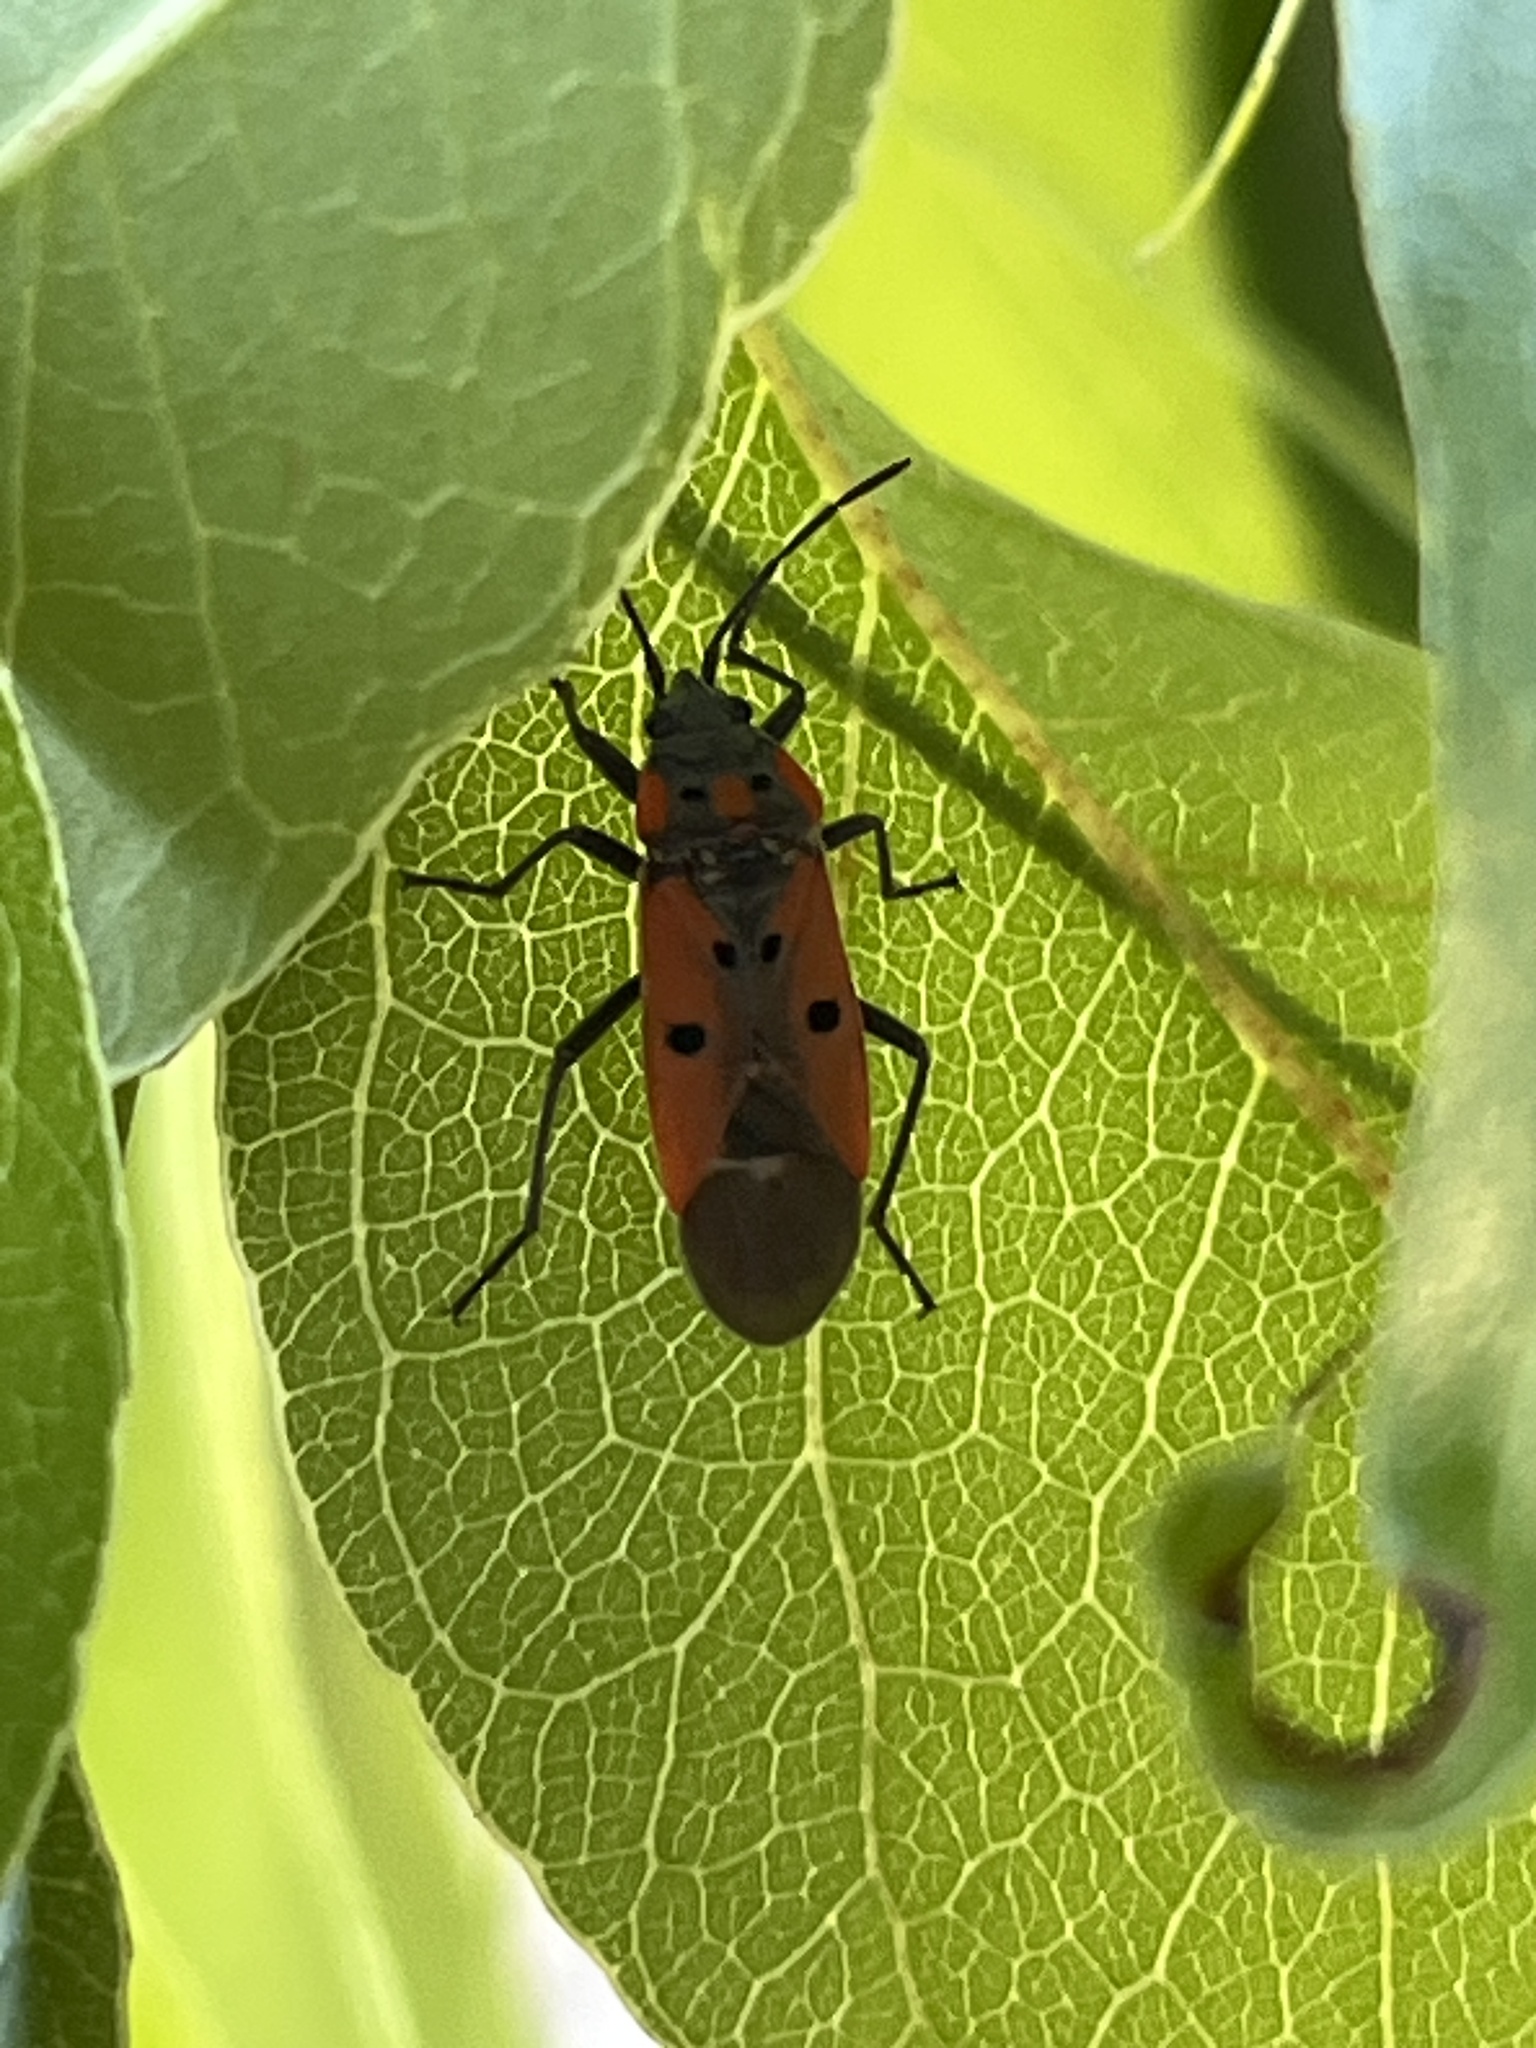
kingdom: Animalia
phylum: Arthropoda
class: Insecta
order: Hemiptera
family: Lygaeidae
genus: Lygaeus
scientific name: Lygaeus creticus
